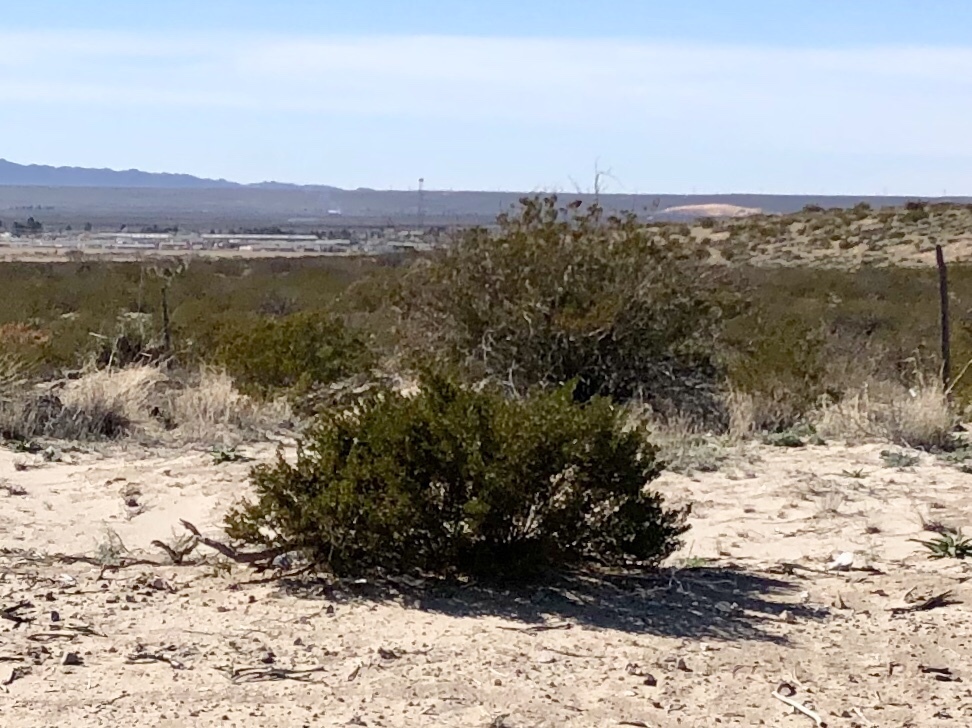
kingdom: Plantae
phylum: Tracheophyta
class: Magnoliopsida
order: Zygophyllales
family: Zygophyllaceae
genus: Larrea
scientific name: Larrea tridentata
